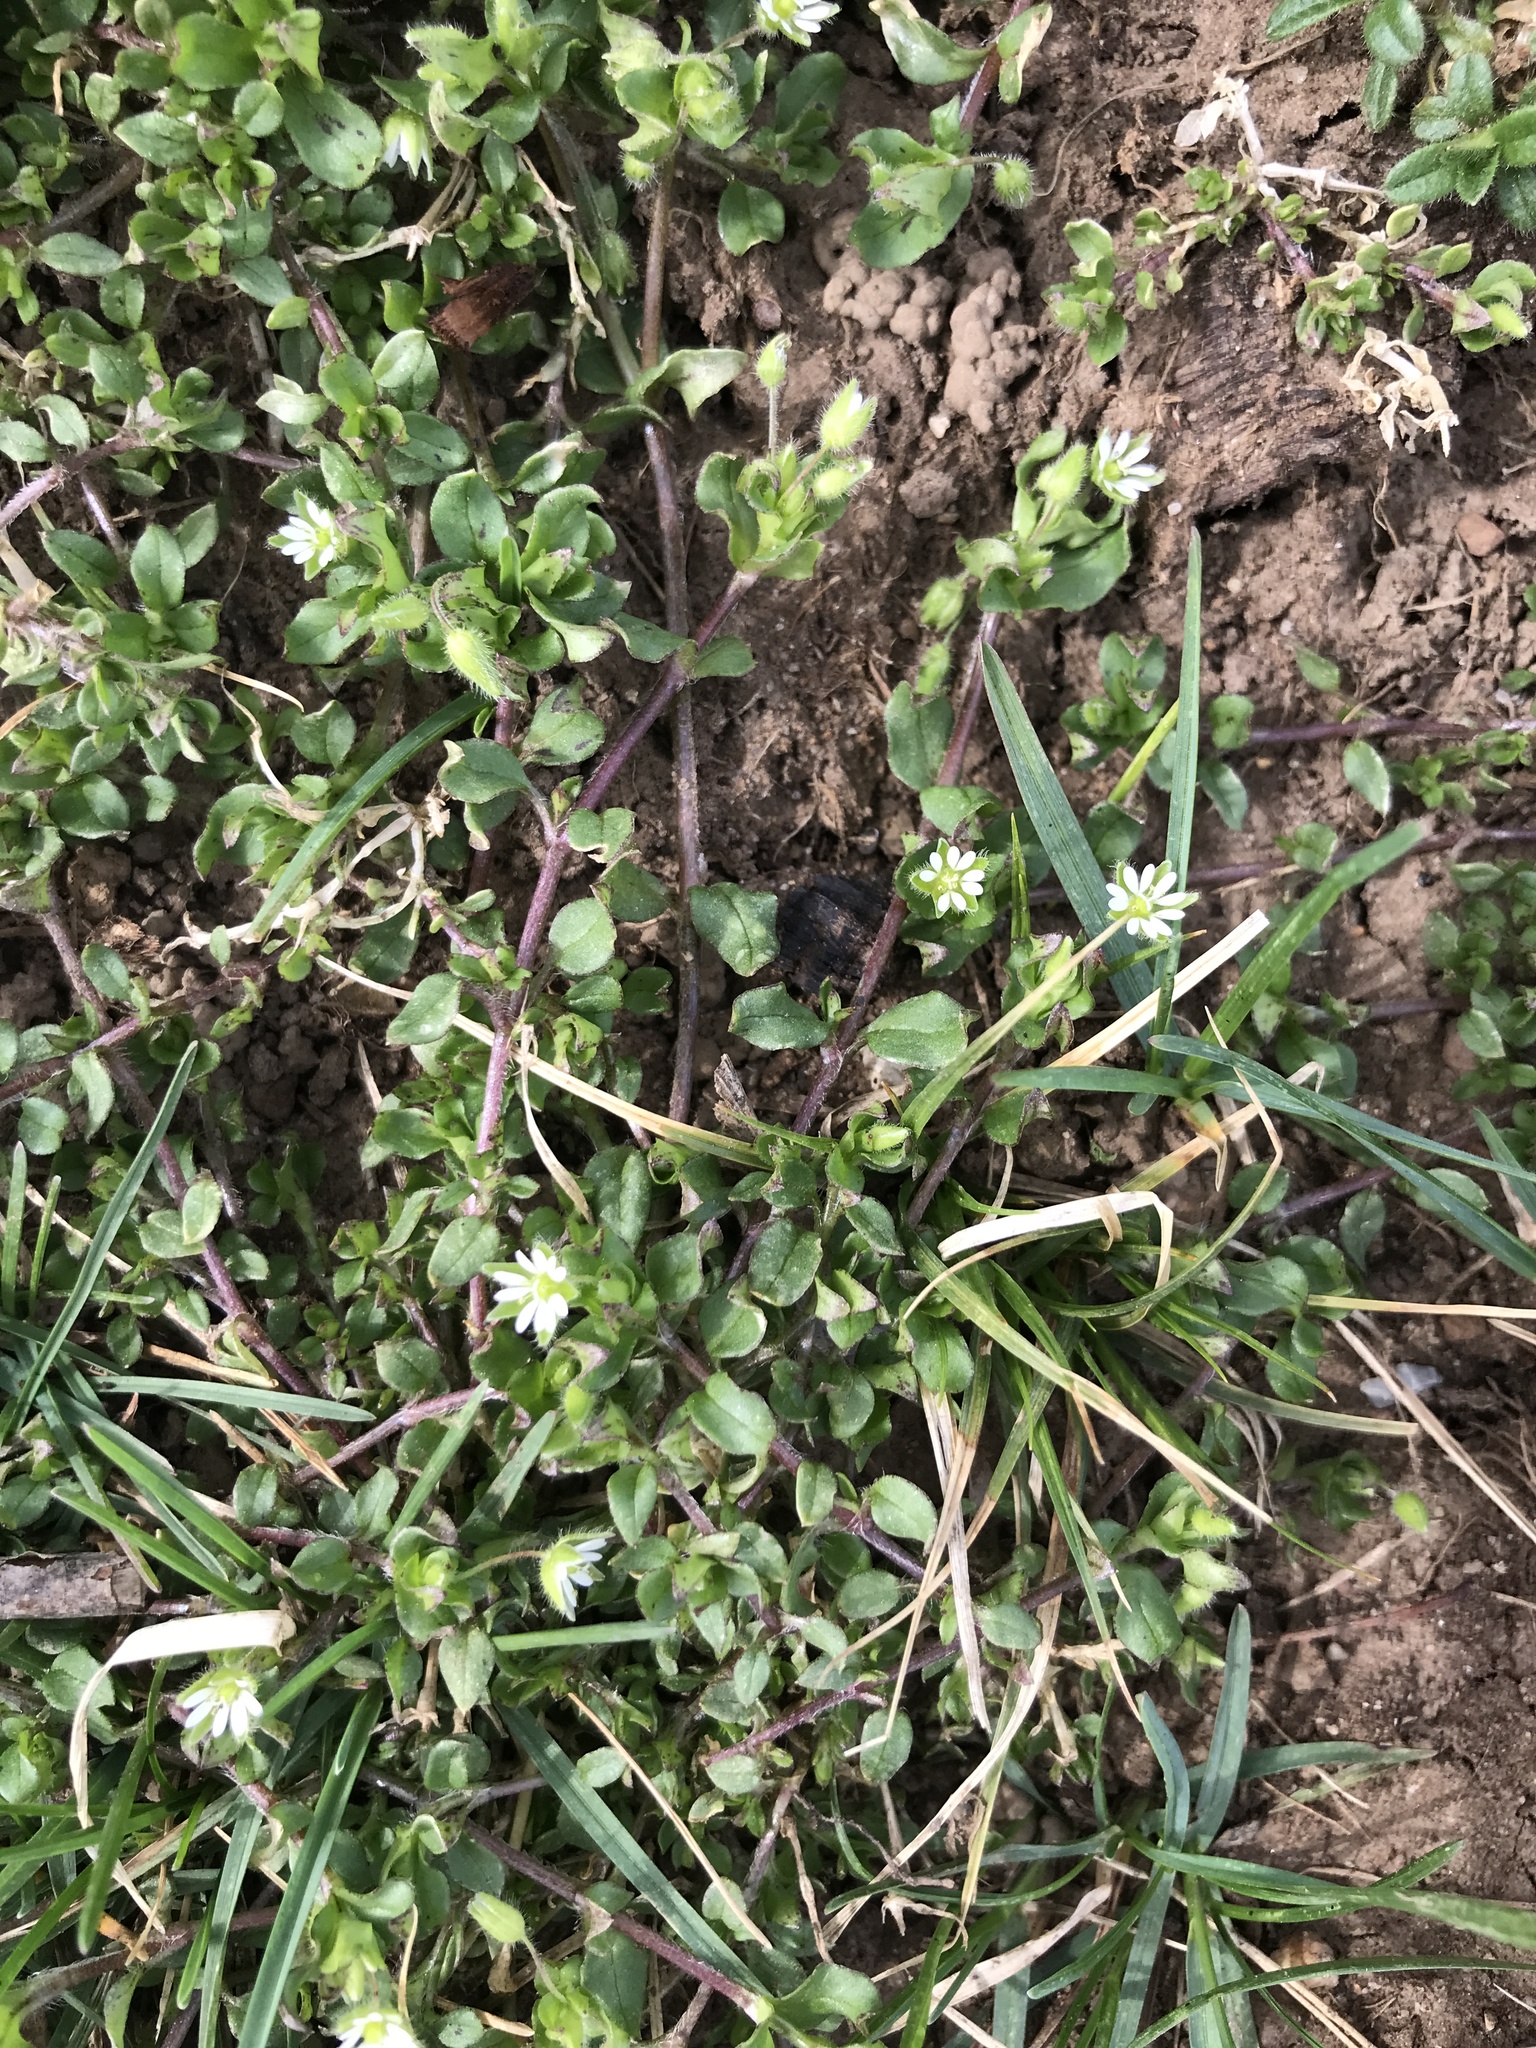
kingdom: Plantae
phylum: Tracheophyta
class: Magnoliopsida
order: Caryophyllales
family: Caryophyllaceae
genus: Stellaria
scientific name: Stellaria media
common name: Common chickweed
